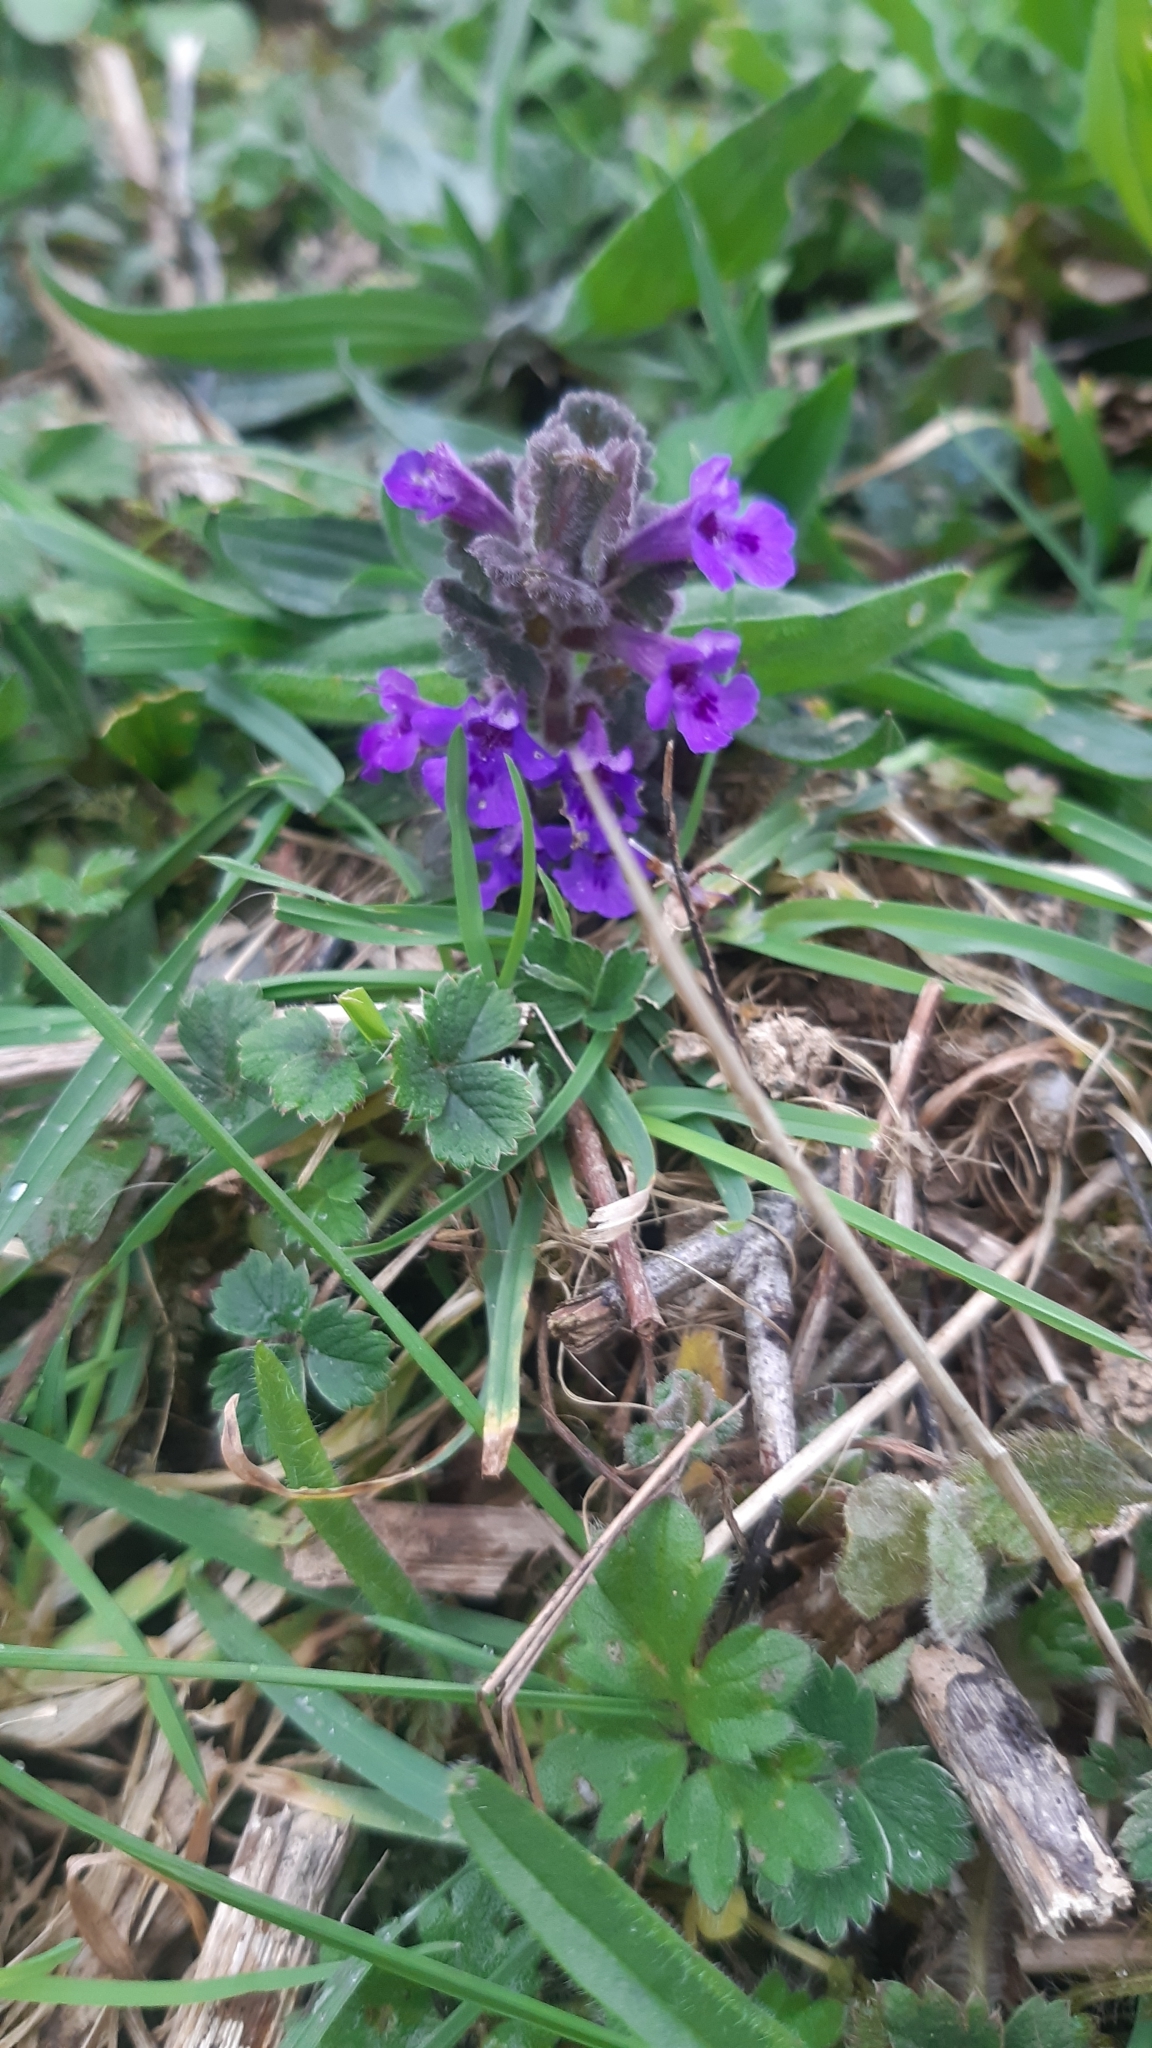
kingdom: Plantae
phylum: Tracheophyta
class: Magnoliopsida
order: Lamiales
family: Lamiaceae
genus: Glechoma
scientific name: Glechoma hederacea
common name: Ground ivy
